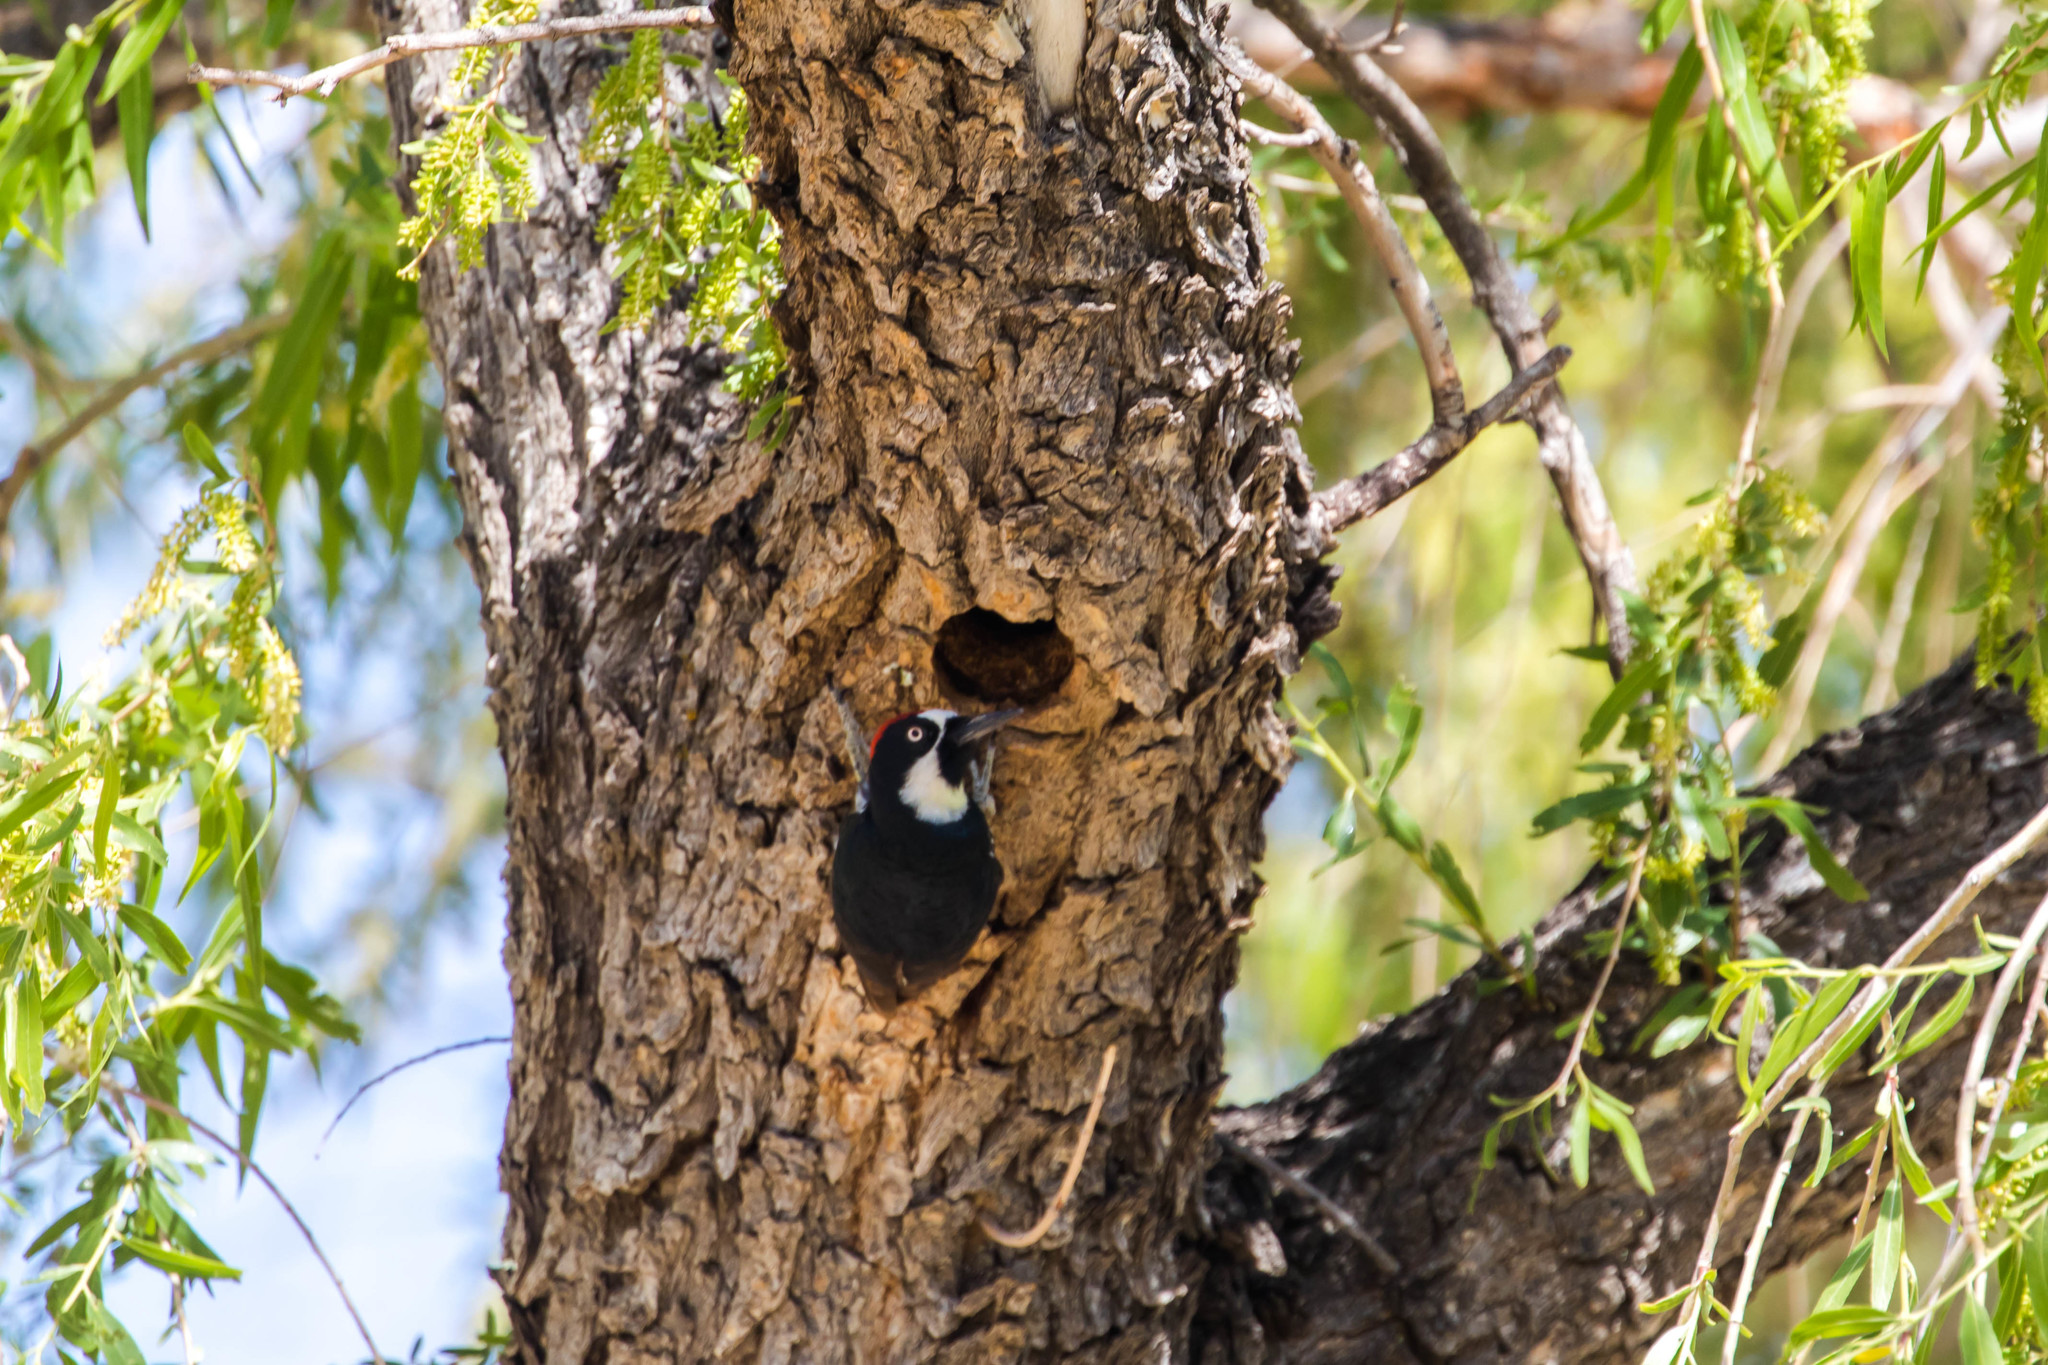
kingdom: Animalia
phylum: Chordata
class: Aves
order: Piciformes
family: Picidae
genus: Melanerpes
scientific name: Melanerpes formicivorus
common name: Acorn woodpecker
